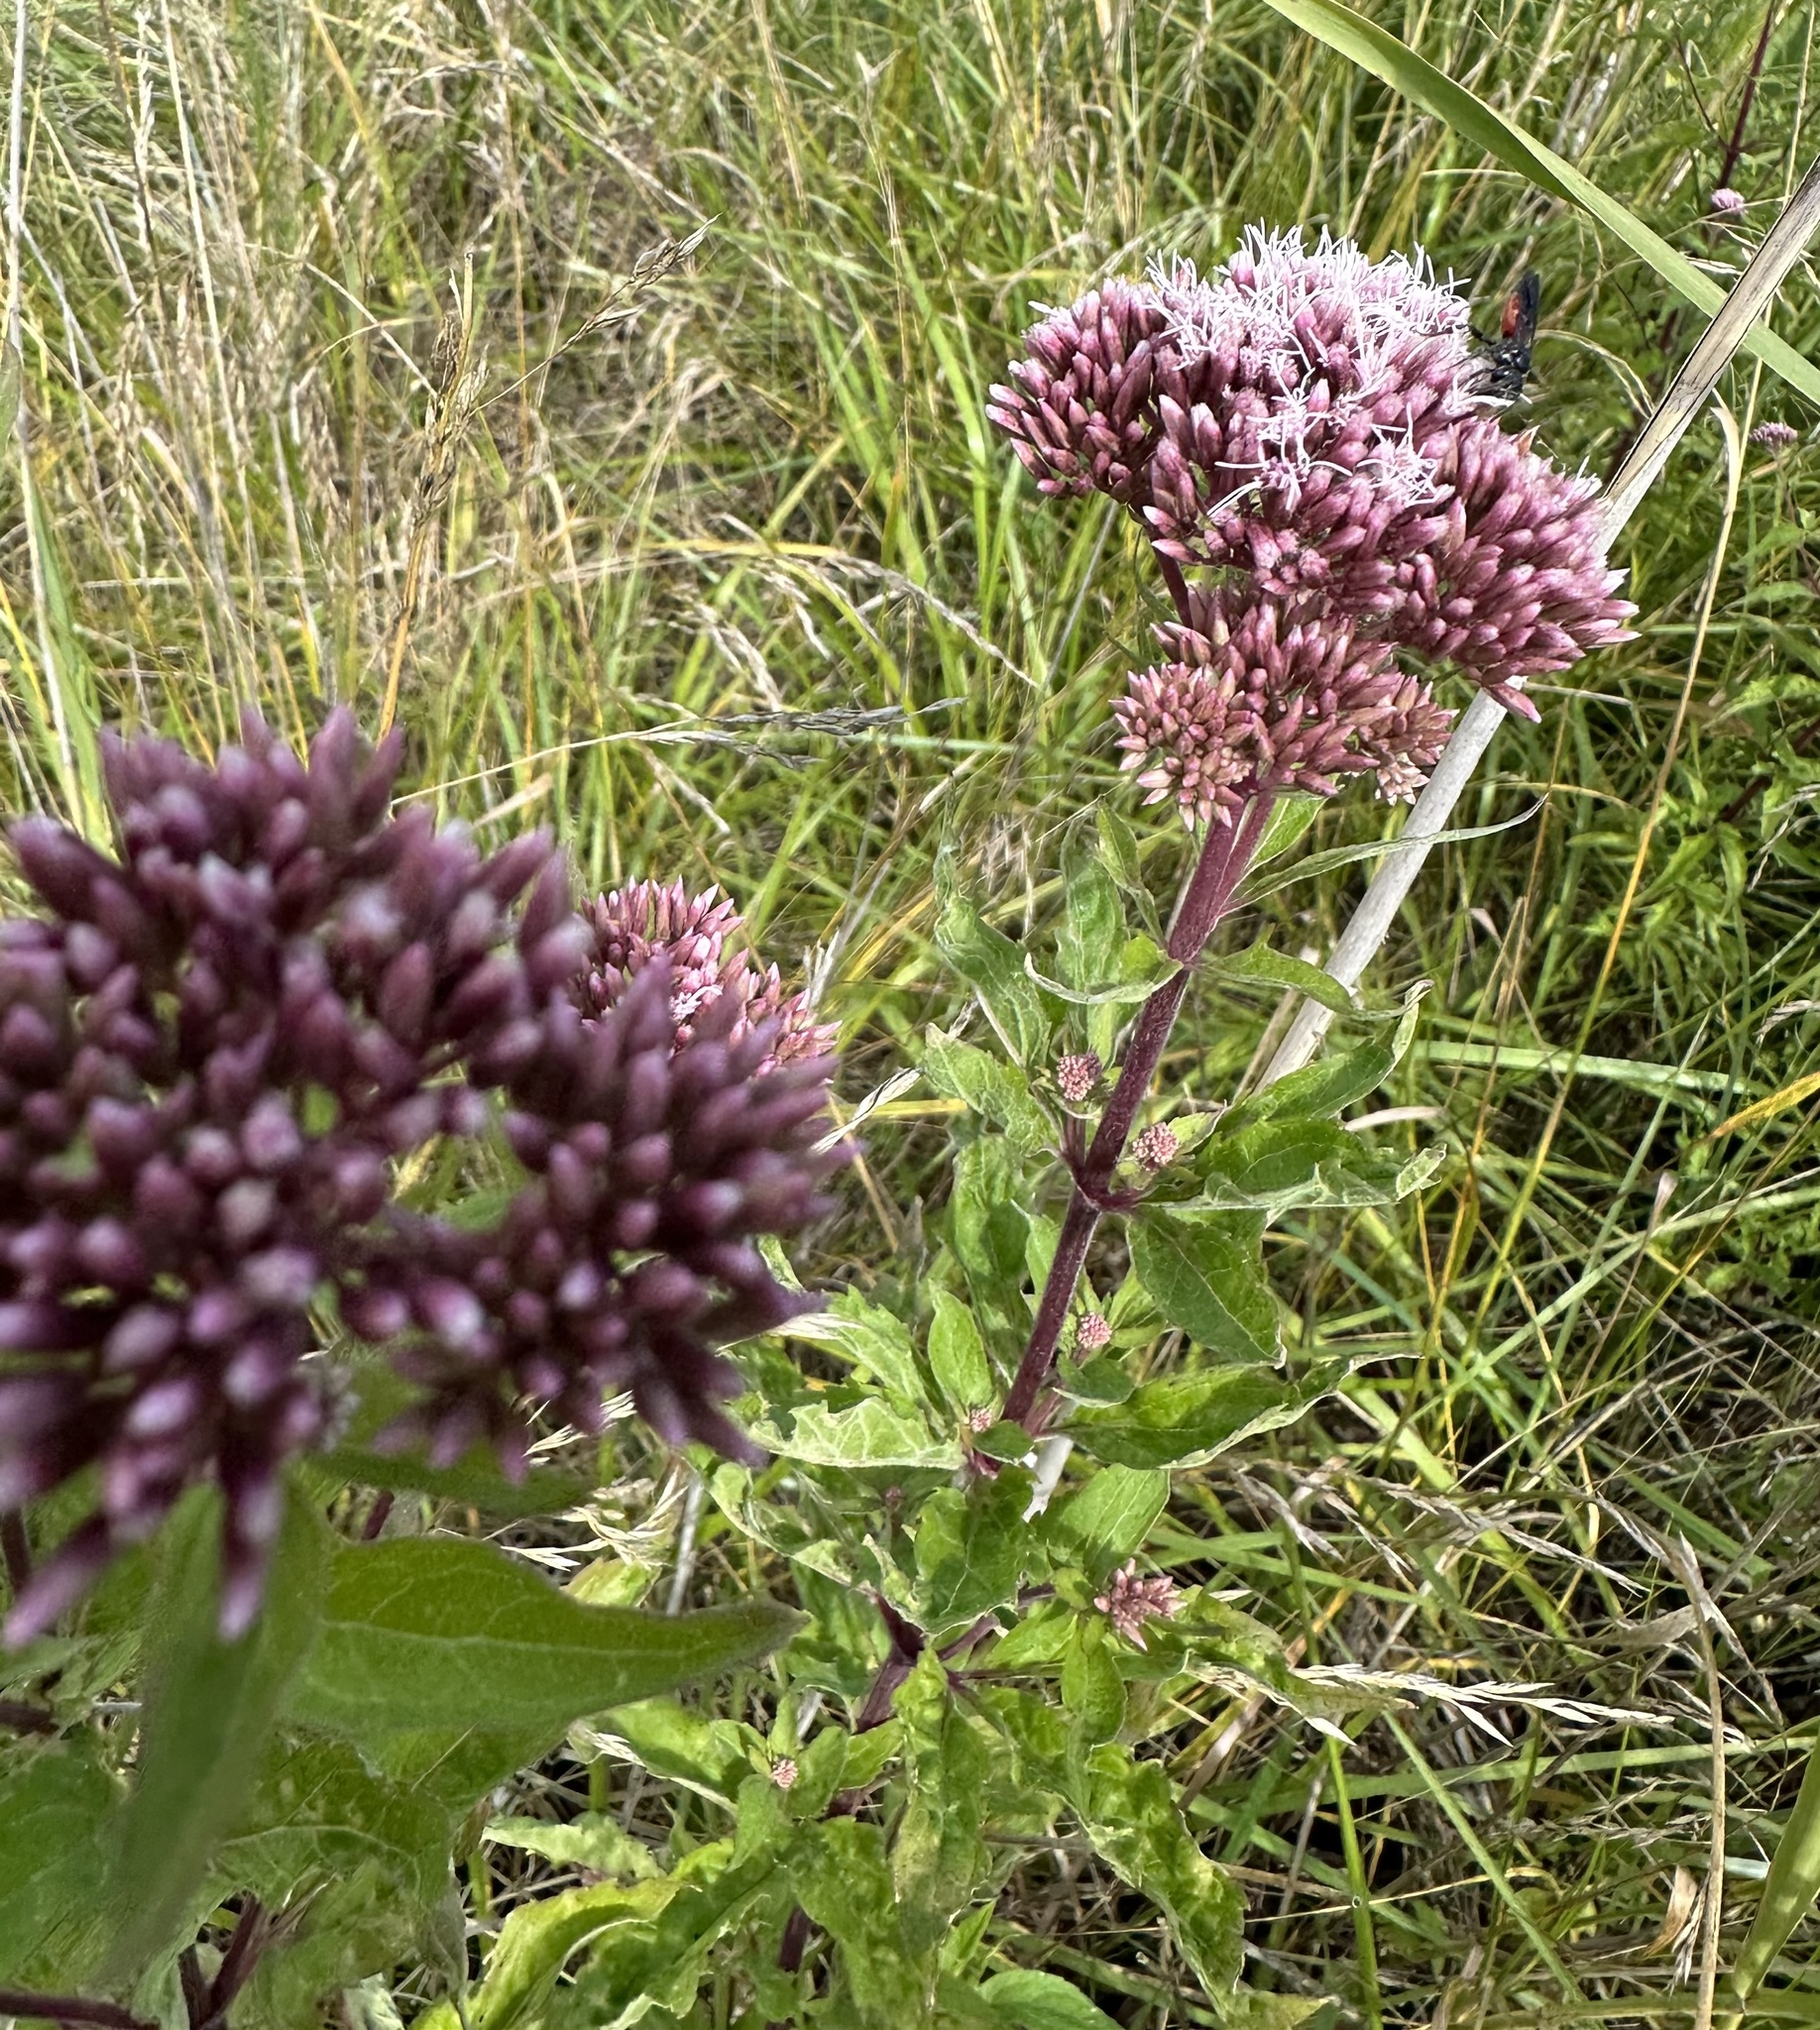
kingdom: Plantae
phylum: Tracheophyta
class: Magnoliopsida
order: Asterales
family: Asteraceae
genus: Eupatorium
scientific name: Eupatorium cannabinum
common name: Hemp-agrimony
